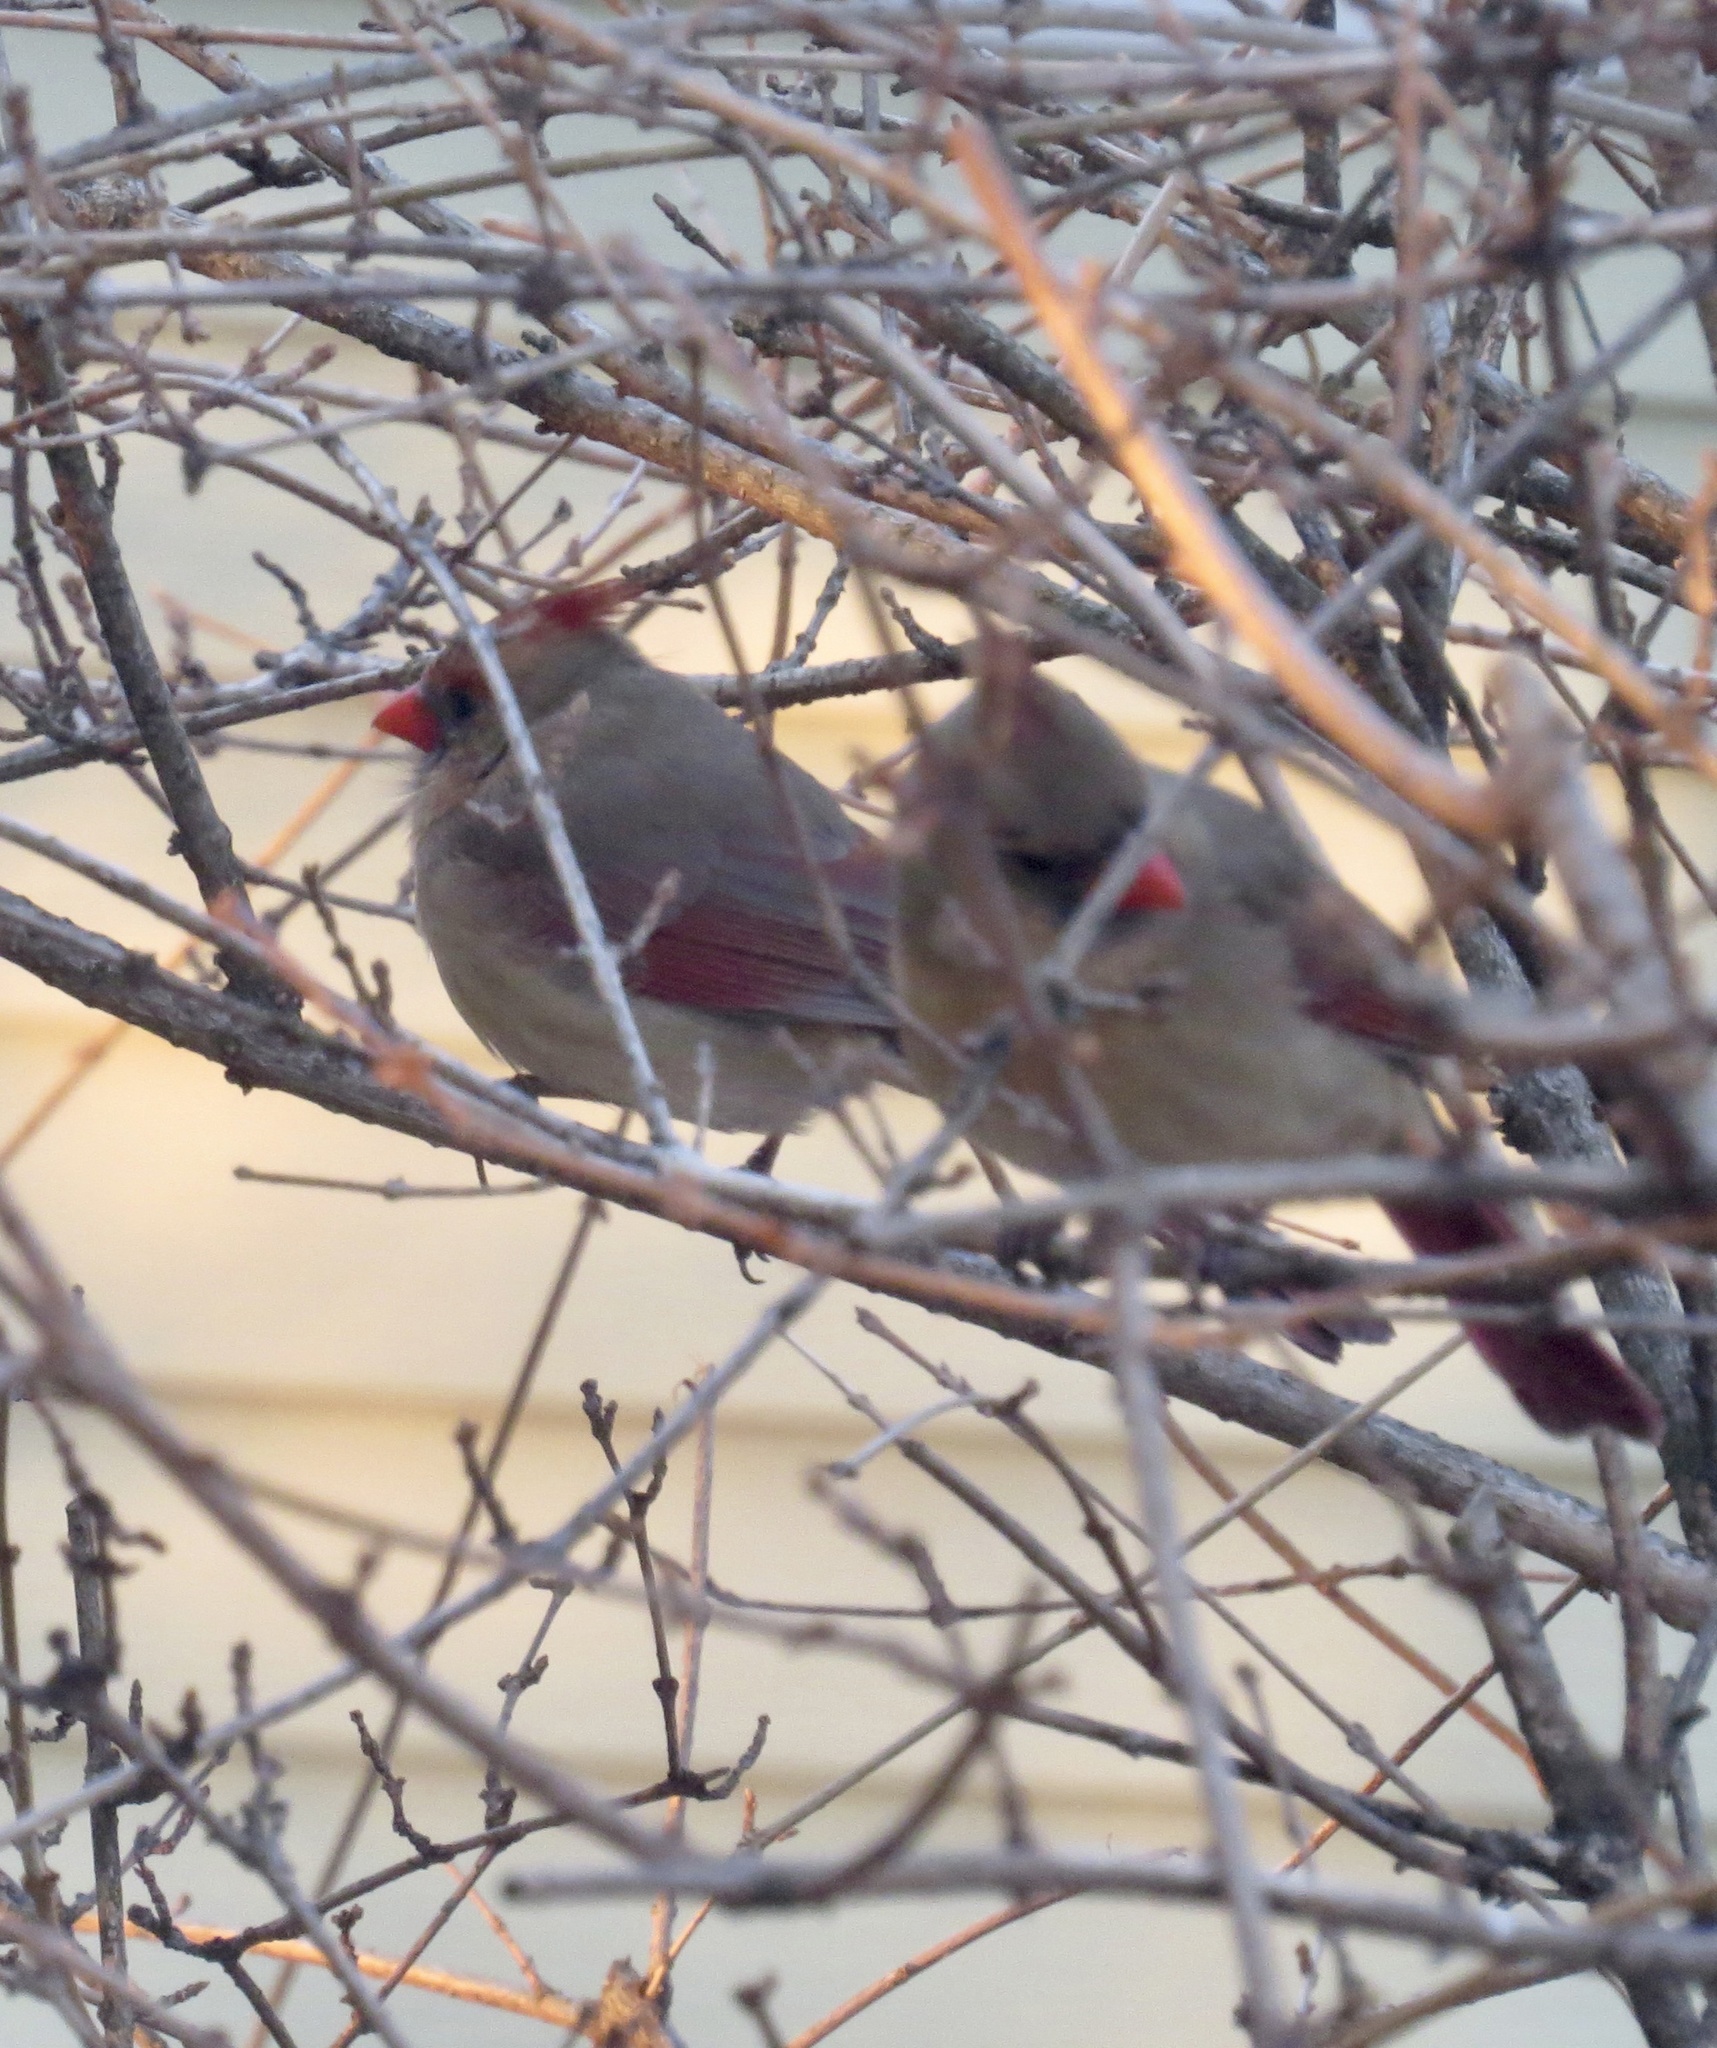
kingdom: Animalia
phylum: Chordata
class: Aves
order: Passeriformes
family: Cardinalidae
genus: Cardinalis
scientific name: Cardinalis cardinalis
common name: Northern cardinal
